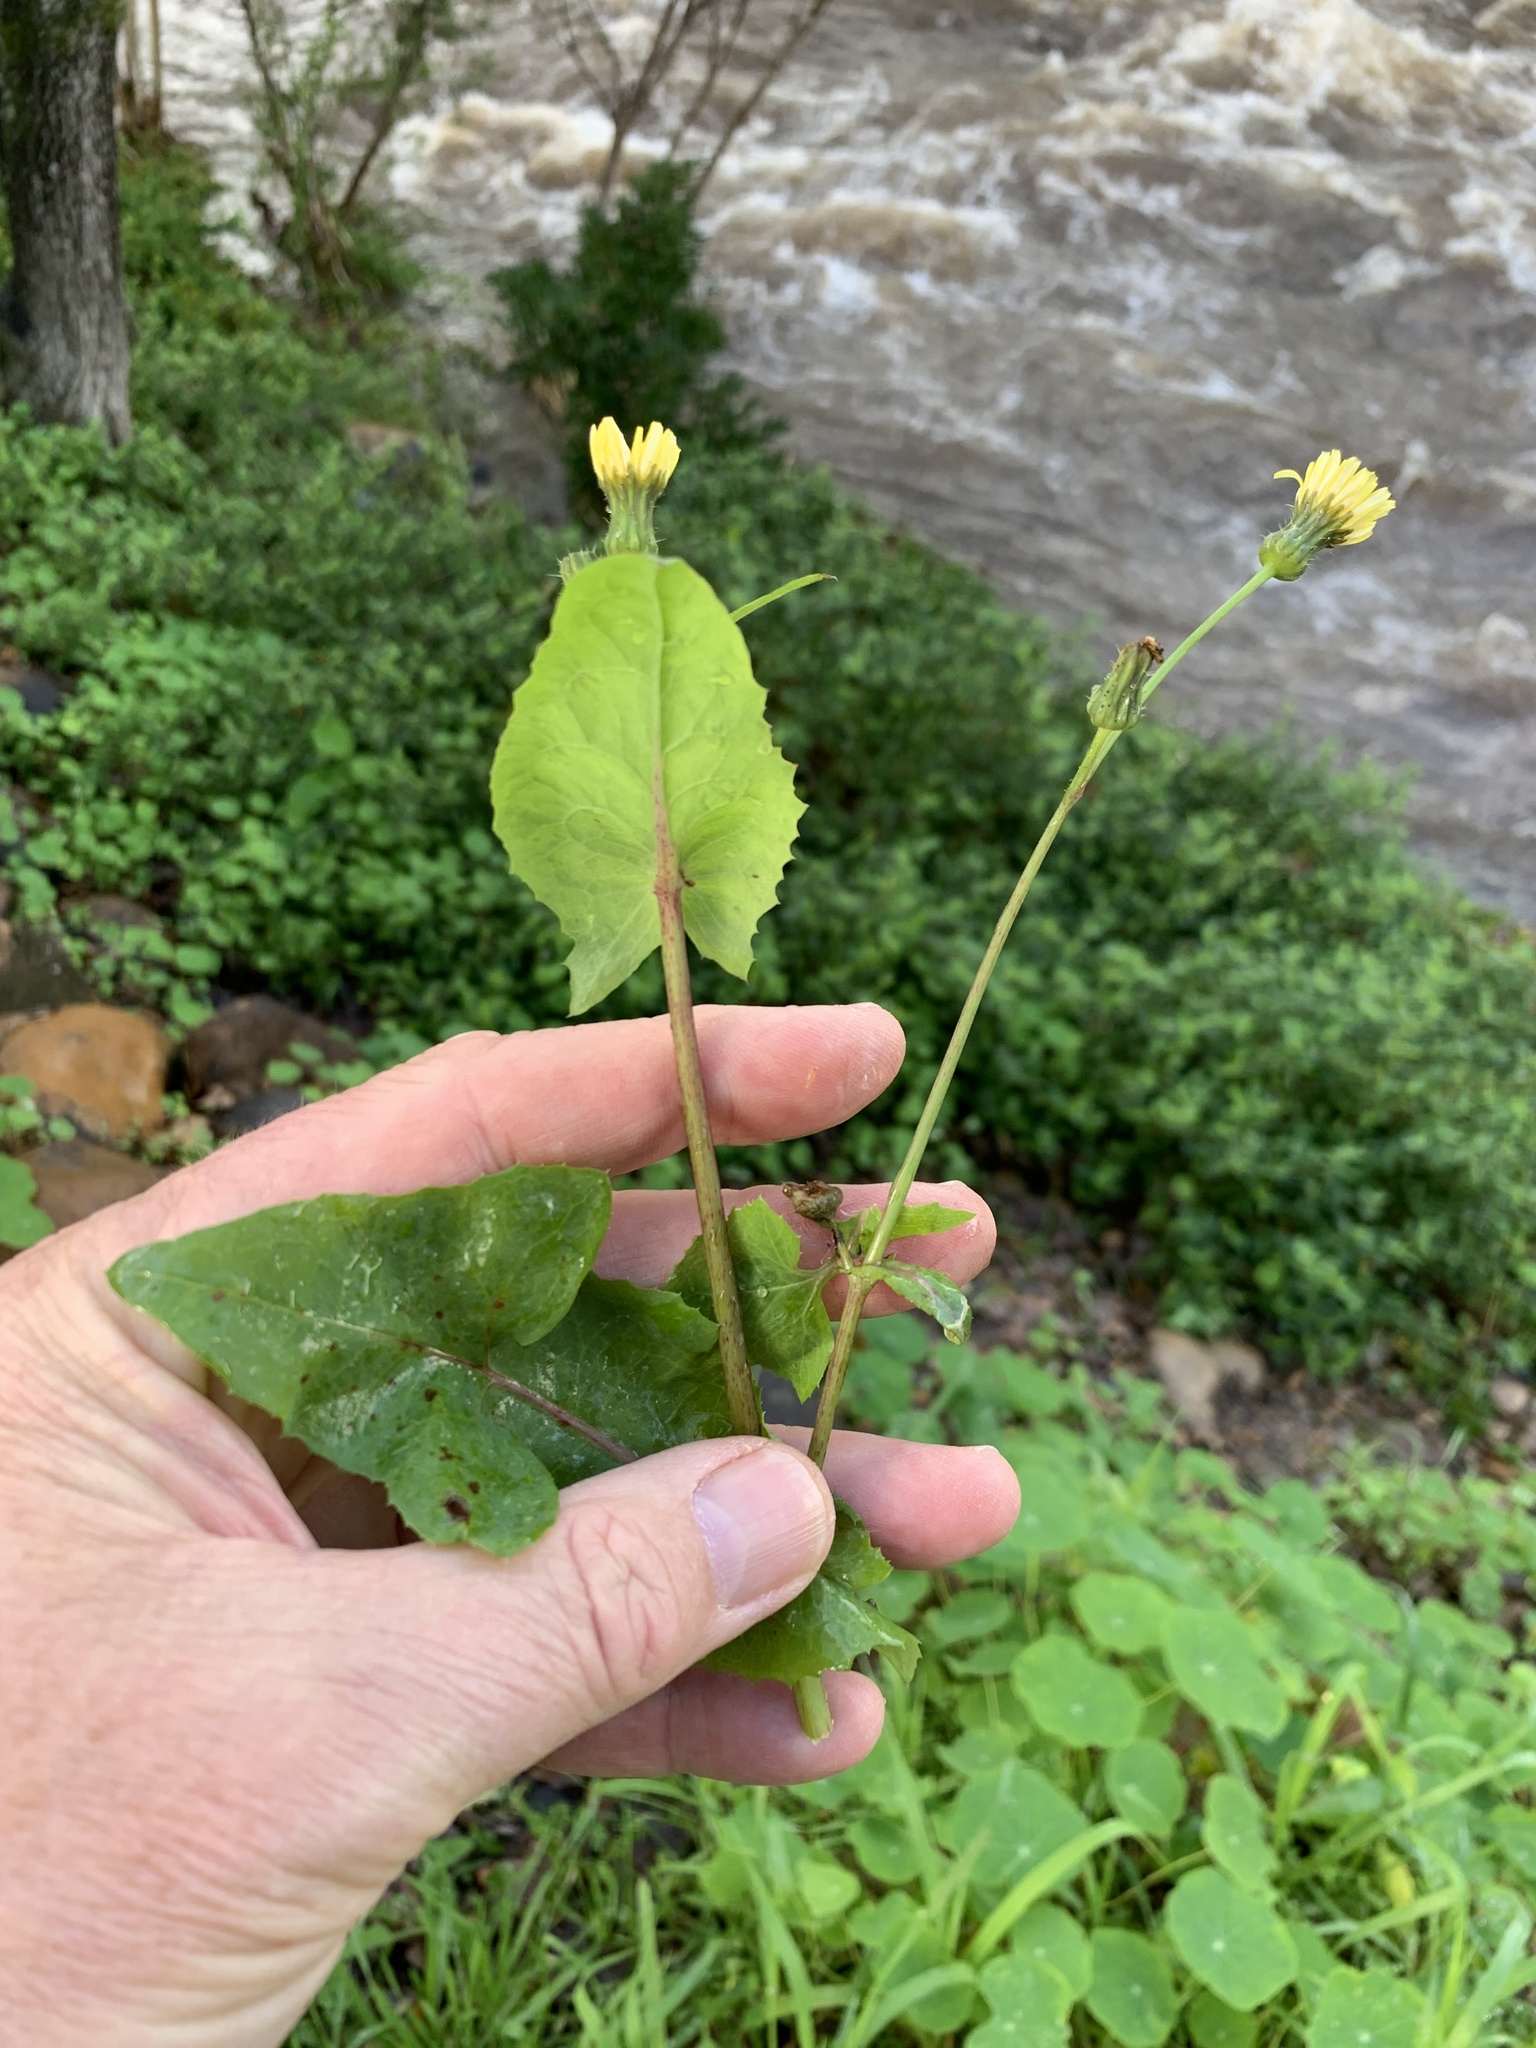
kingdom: Plantae
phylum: Tracheophyta
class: Magnoliopsida
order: Asterales
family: Asteraceae
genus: Sonchus
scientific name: Sonchus oleraceus
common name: Common sowthistle
